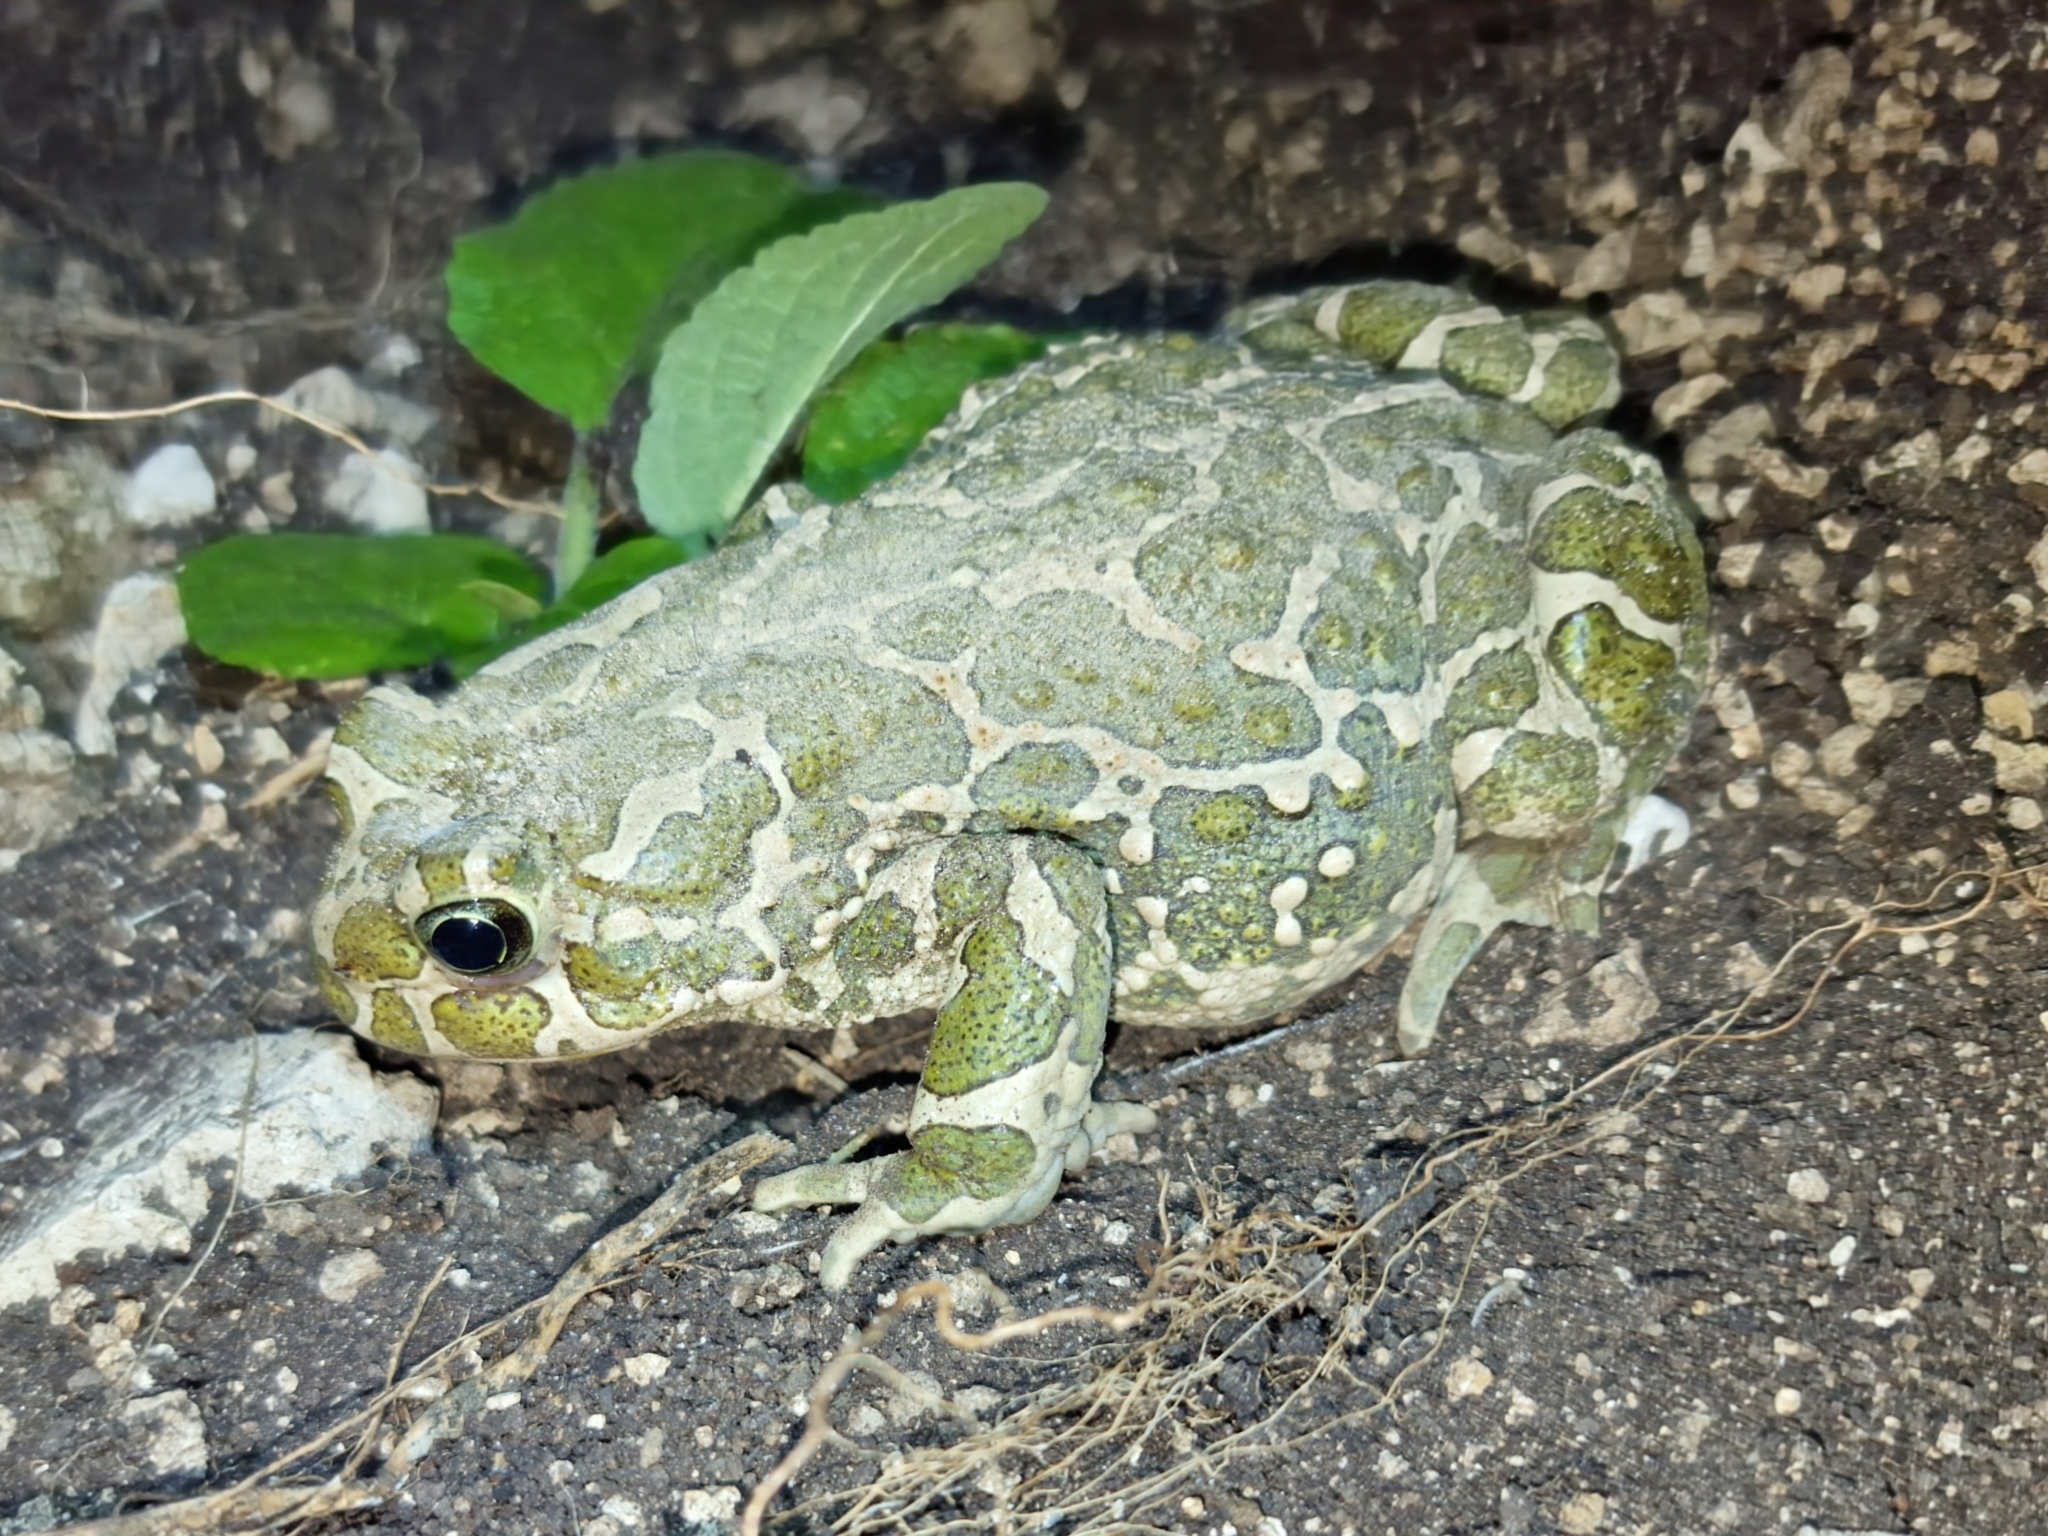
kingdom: Animalia
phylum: Chordata
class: Amphibia
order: Anura
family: Bufonidae
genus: Bufotes
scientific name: Bufotes viridis
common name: European green toad
